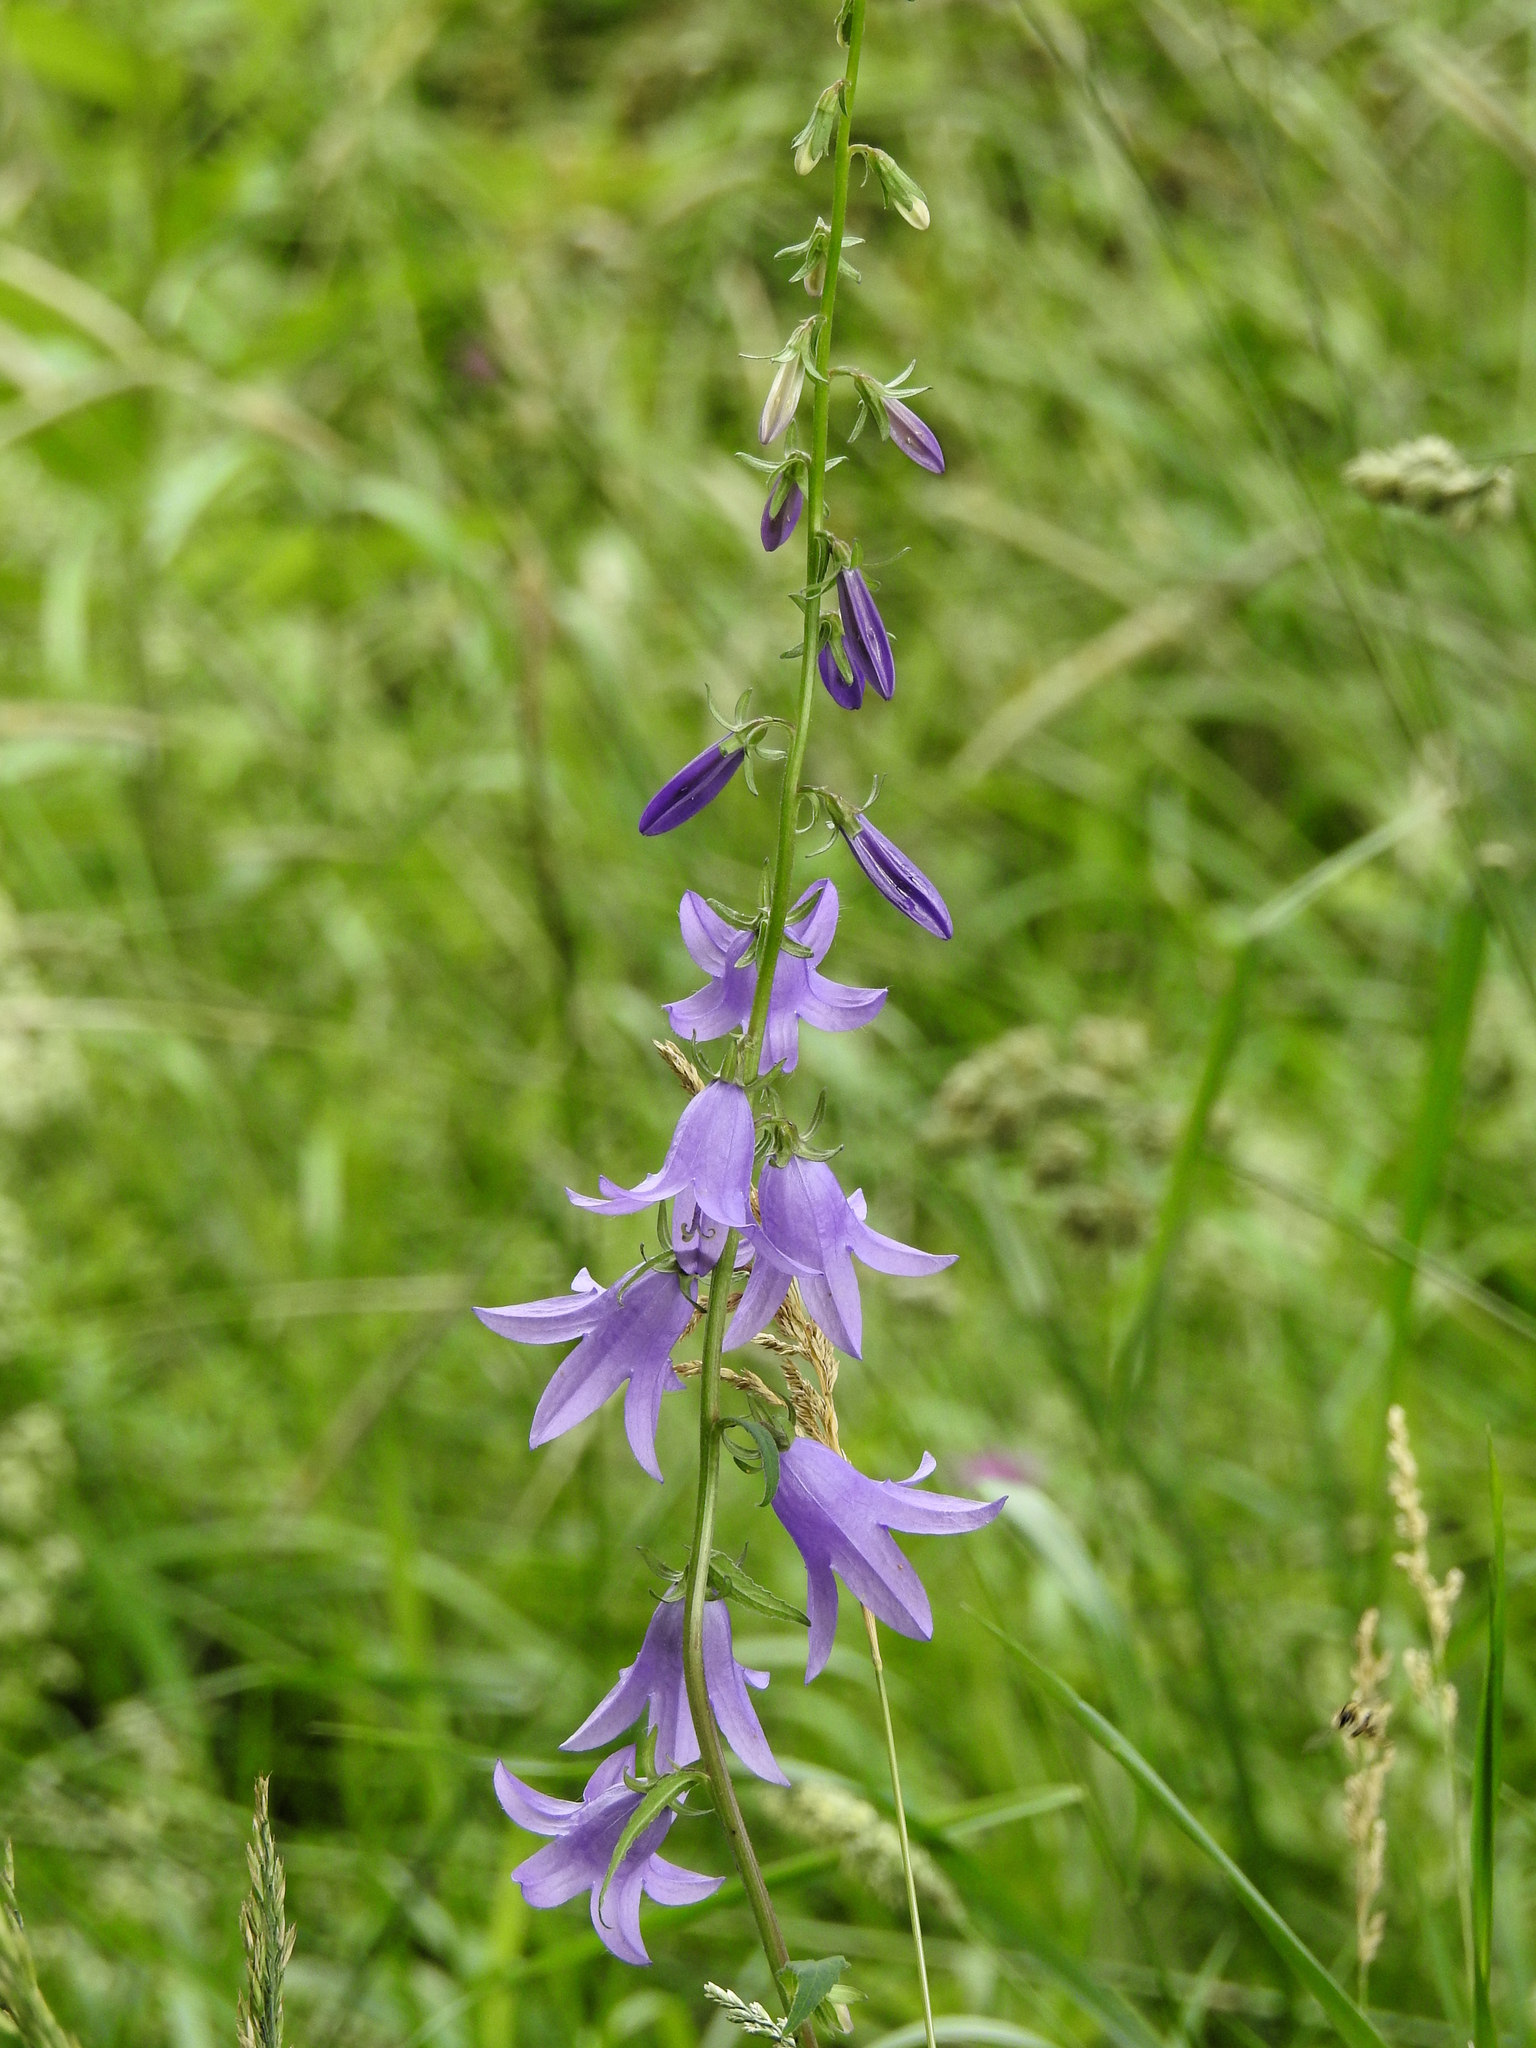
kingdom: Plantae
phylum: Tracheophyta
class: Magnoliopsida
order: Asterales
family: Campanulaceae
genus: Campanula
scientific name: Campanula rapunculoides
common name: Creeping bellflower
